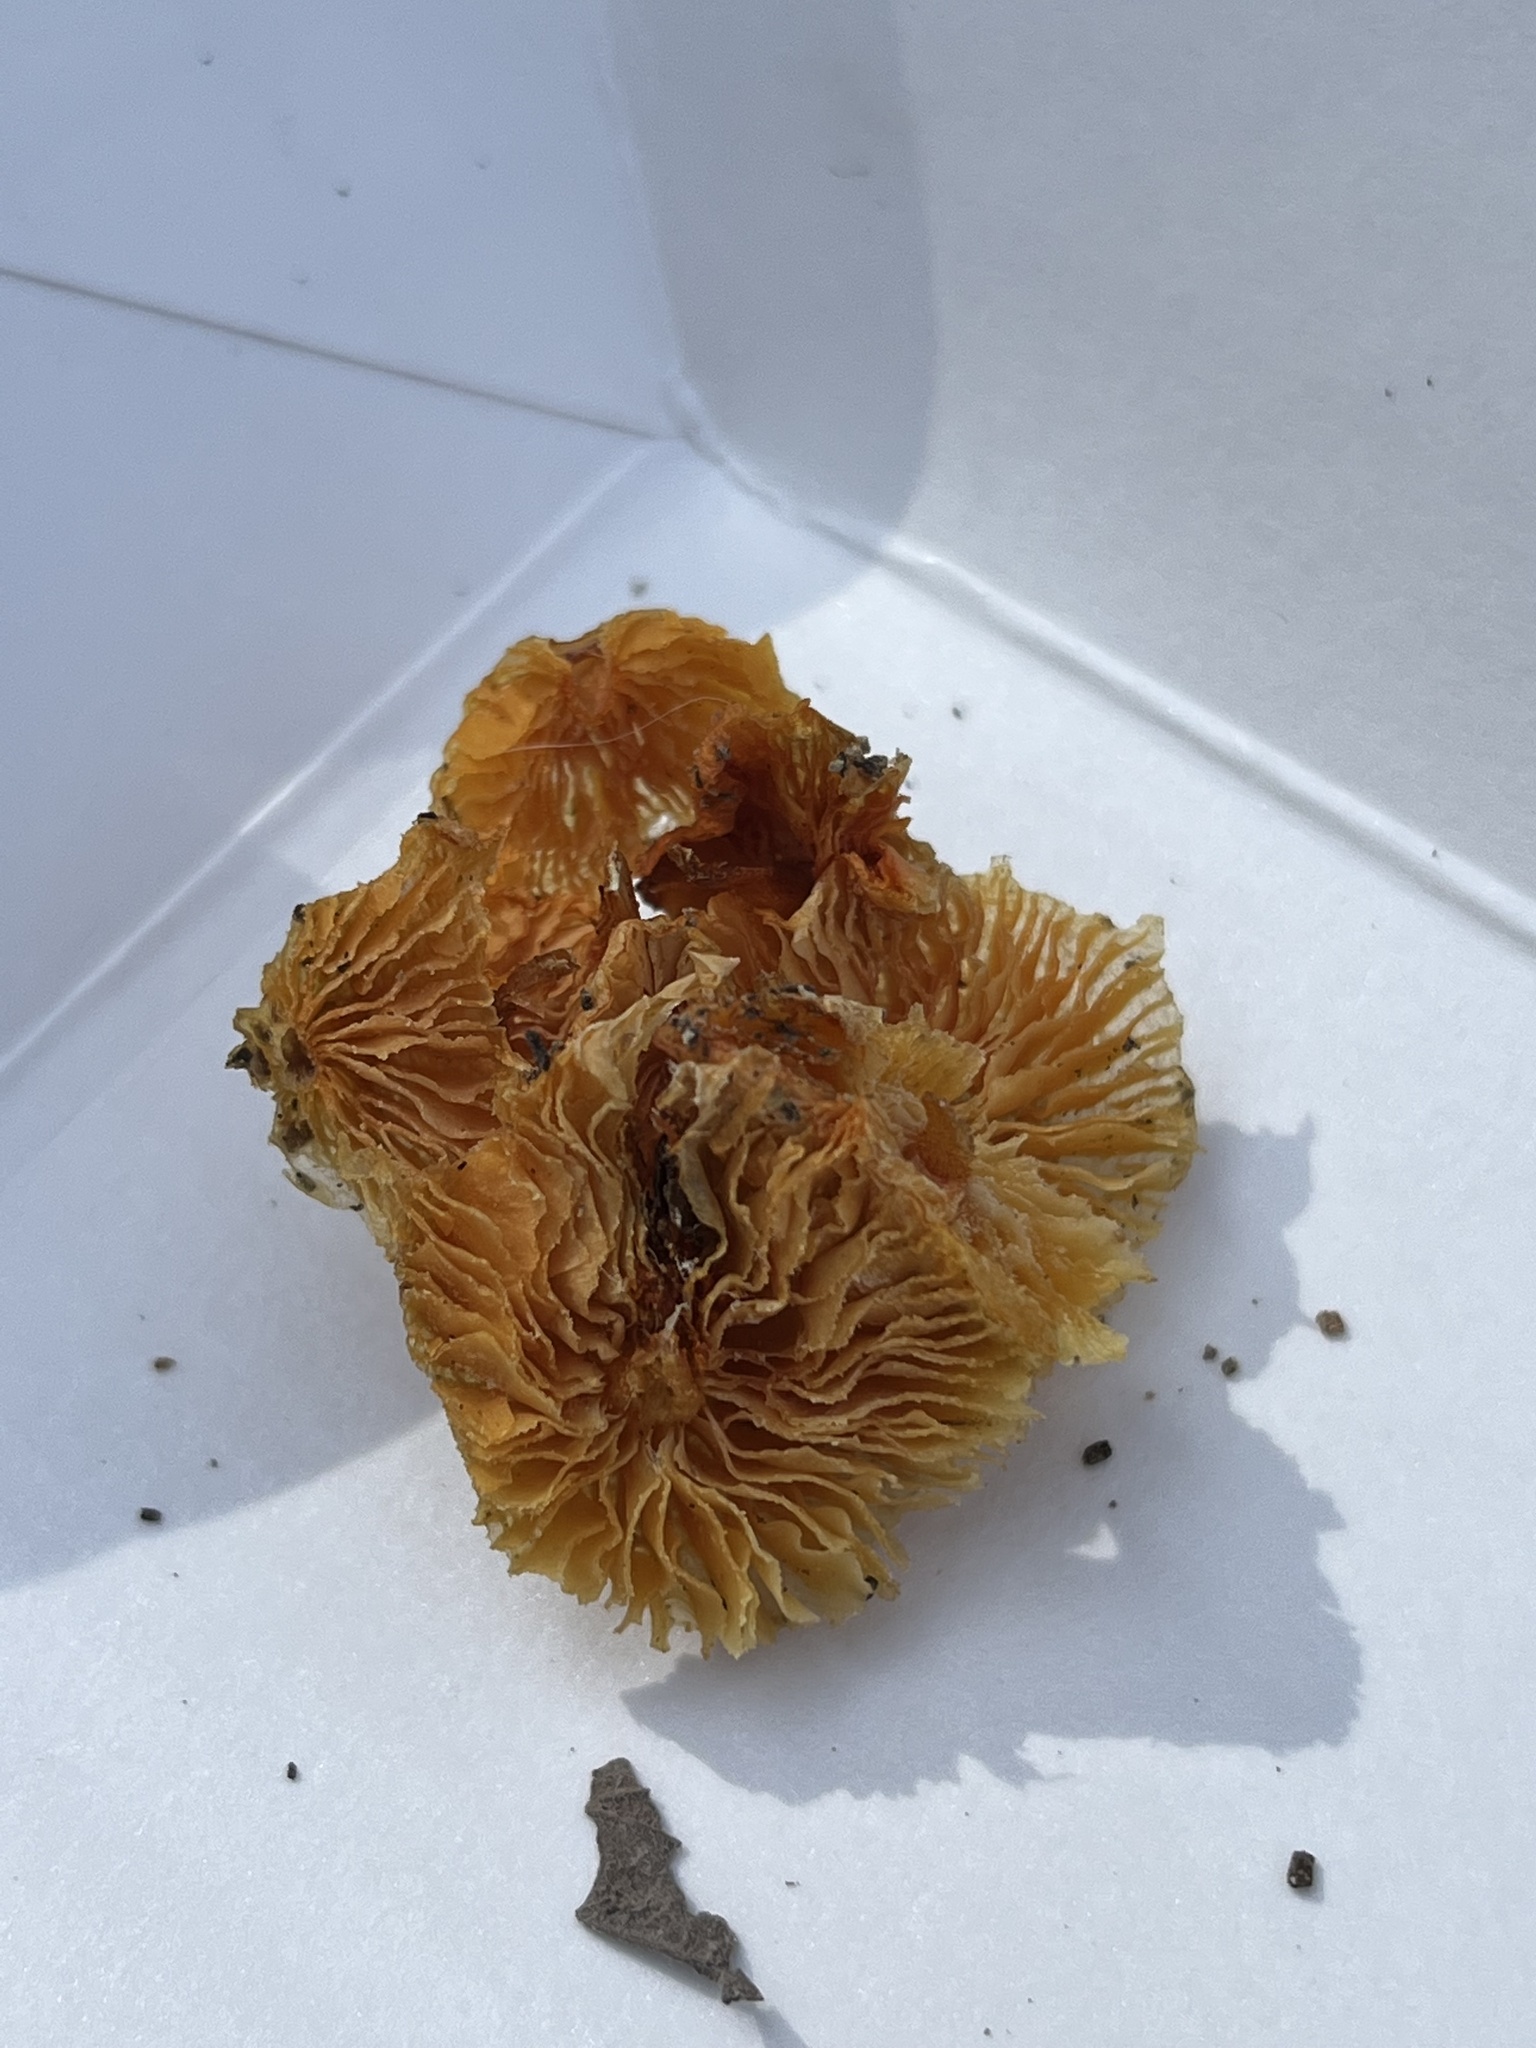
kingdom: Fungi
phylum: Basidiomycota
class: Agaricomycetes
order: Agaricales
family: Mycenaceae
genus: Mycena
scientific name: Mycena leaiana
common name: Orange mycena
